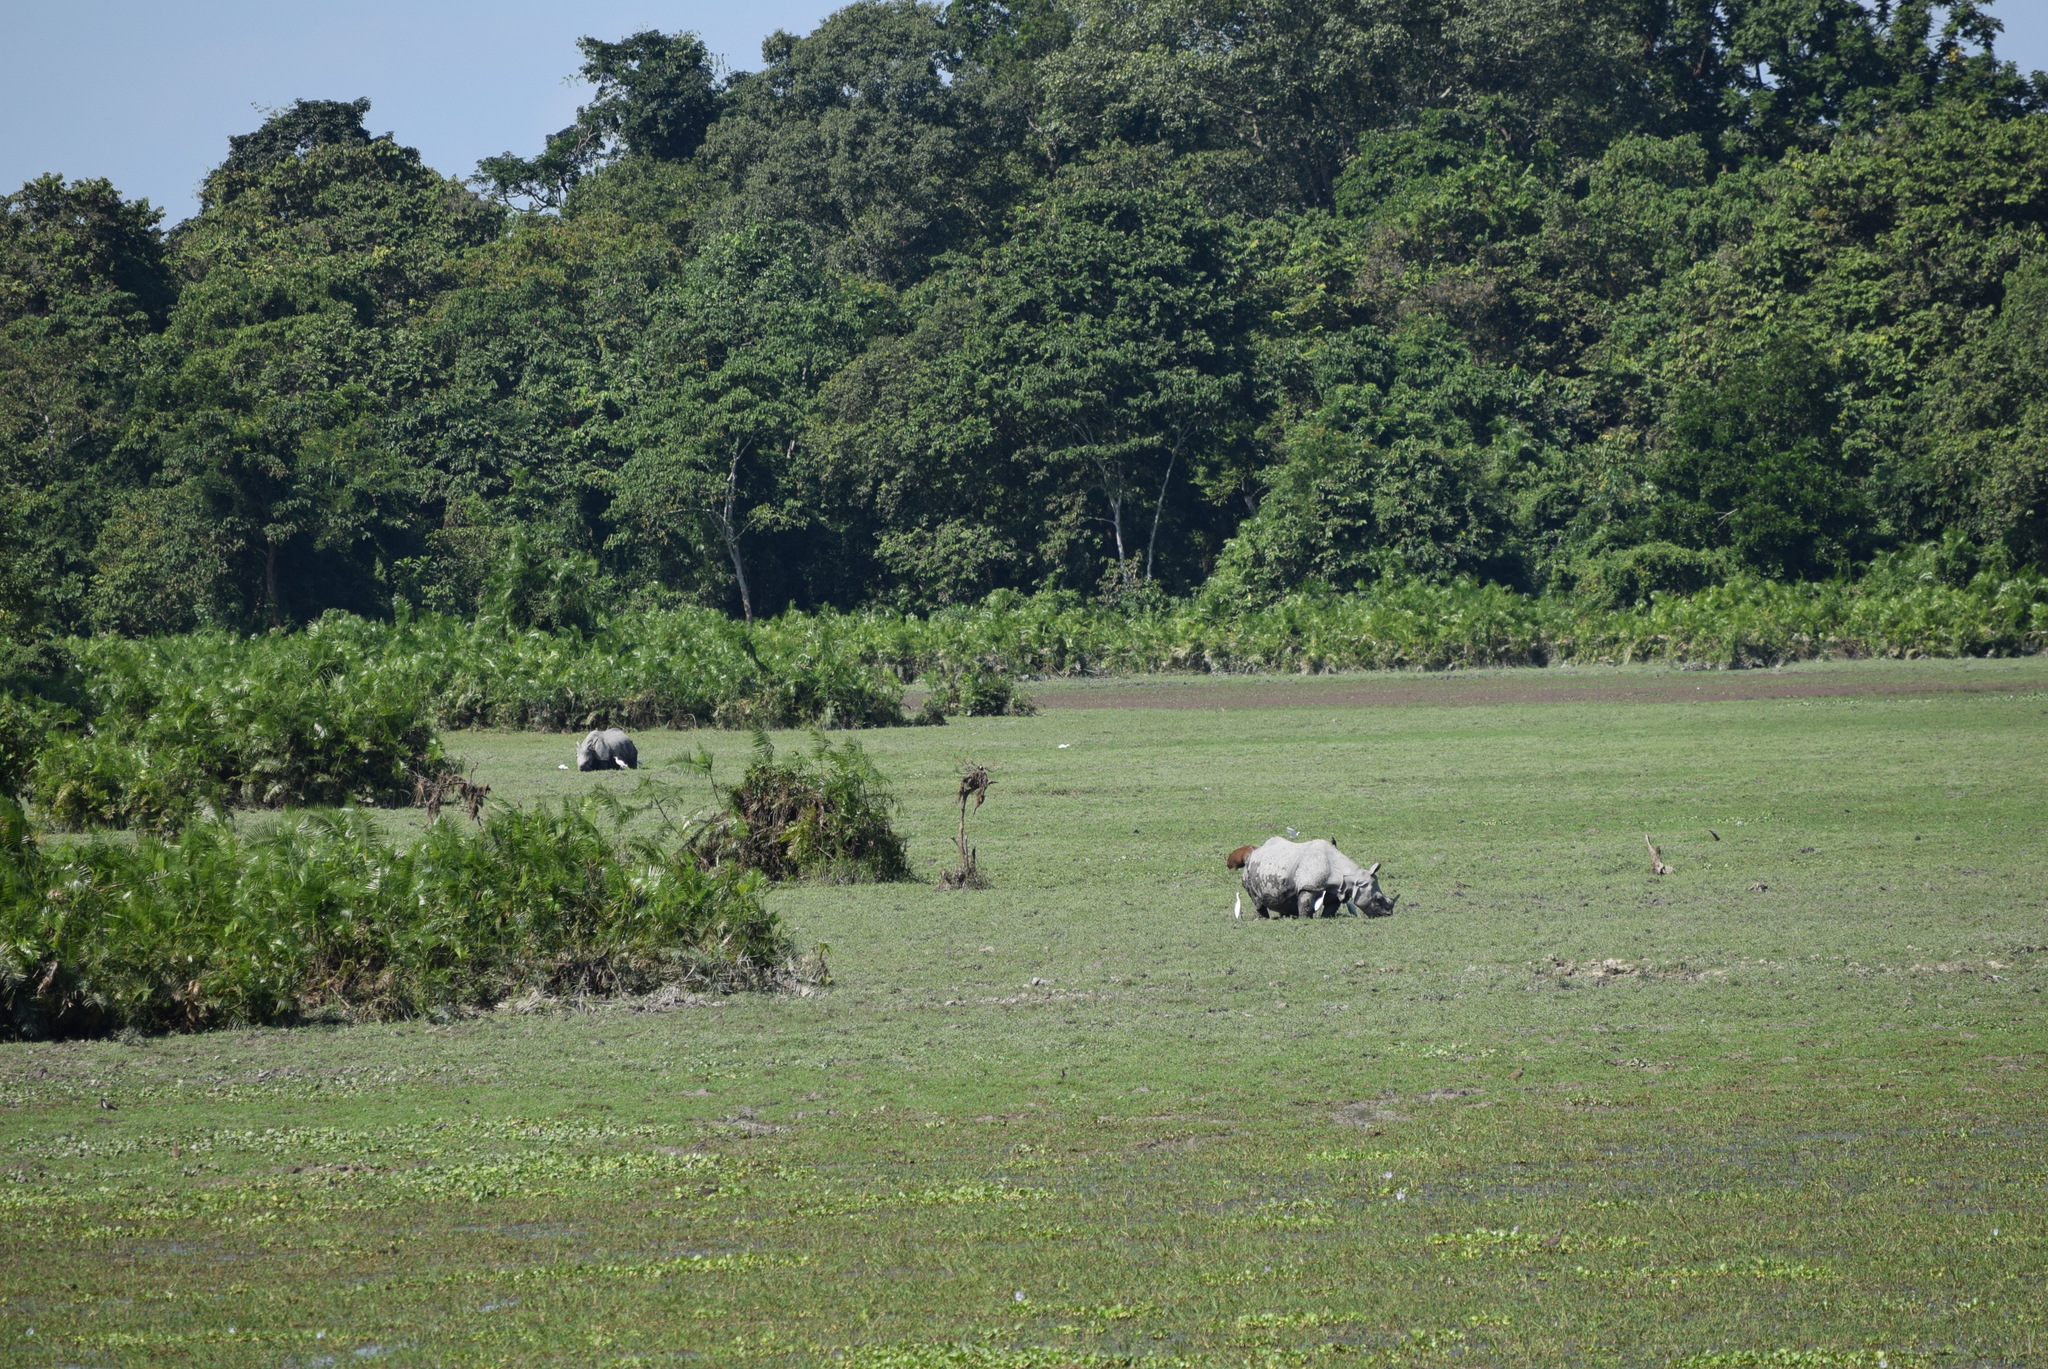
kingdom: Animalia
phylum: Chordata
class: Mammalia
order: Perissodactyla
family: Rhinocerotidae
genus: Rhinoceros
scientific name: Rhinoceros unicornis
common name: Indian rhinoceros
